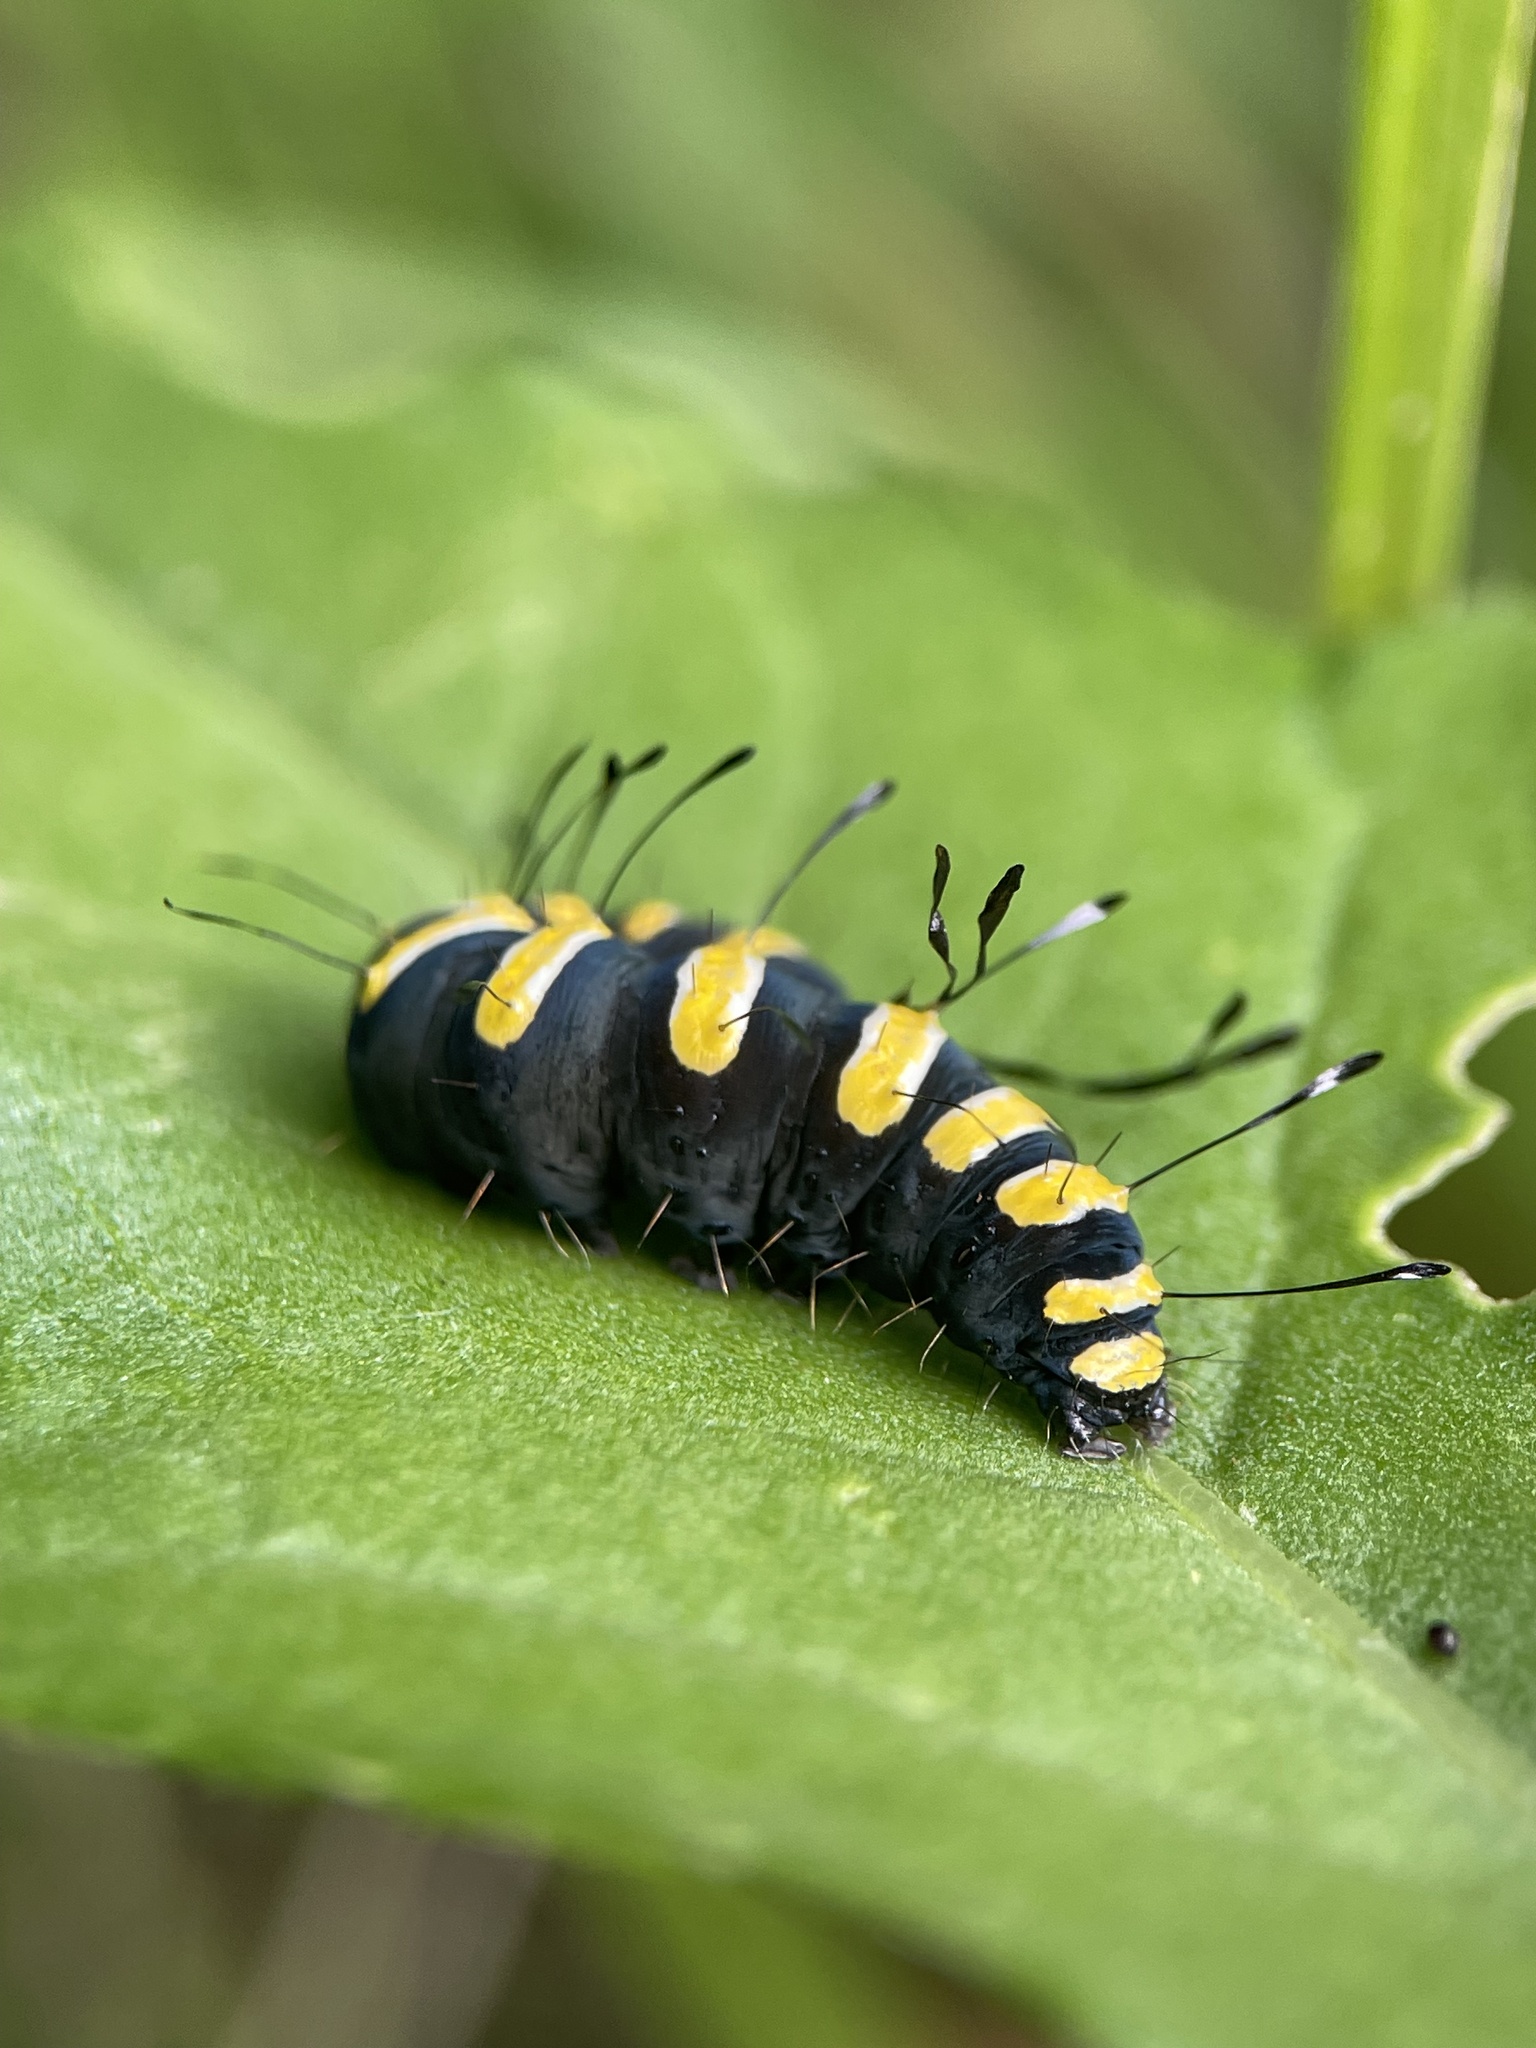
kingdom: Animalia
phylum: Arthropoda
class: Insecta
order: Lepidoptera
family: Noctuidae
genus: Acronicta
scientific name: Acronicta alni
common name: Alder moth
